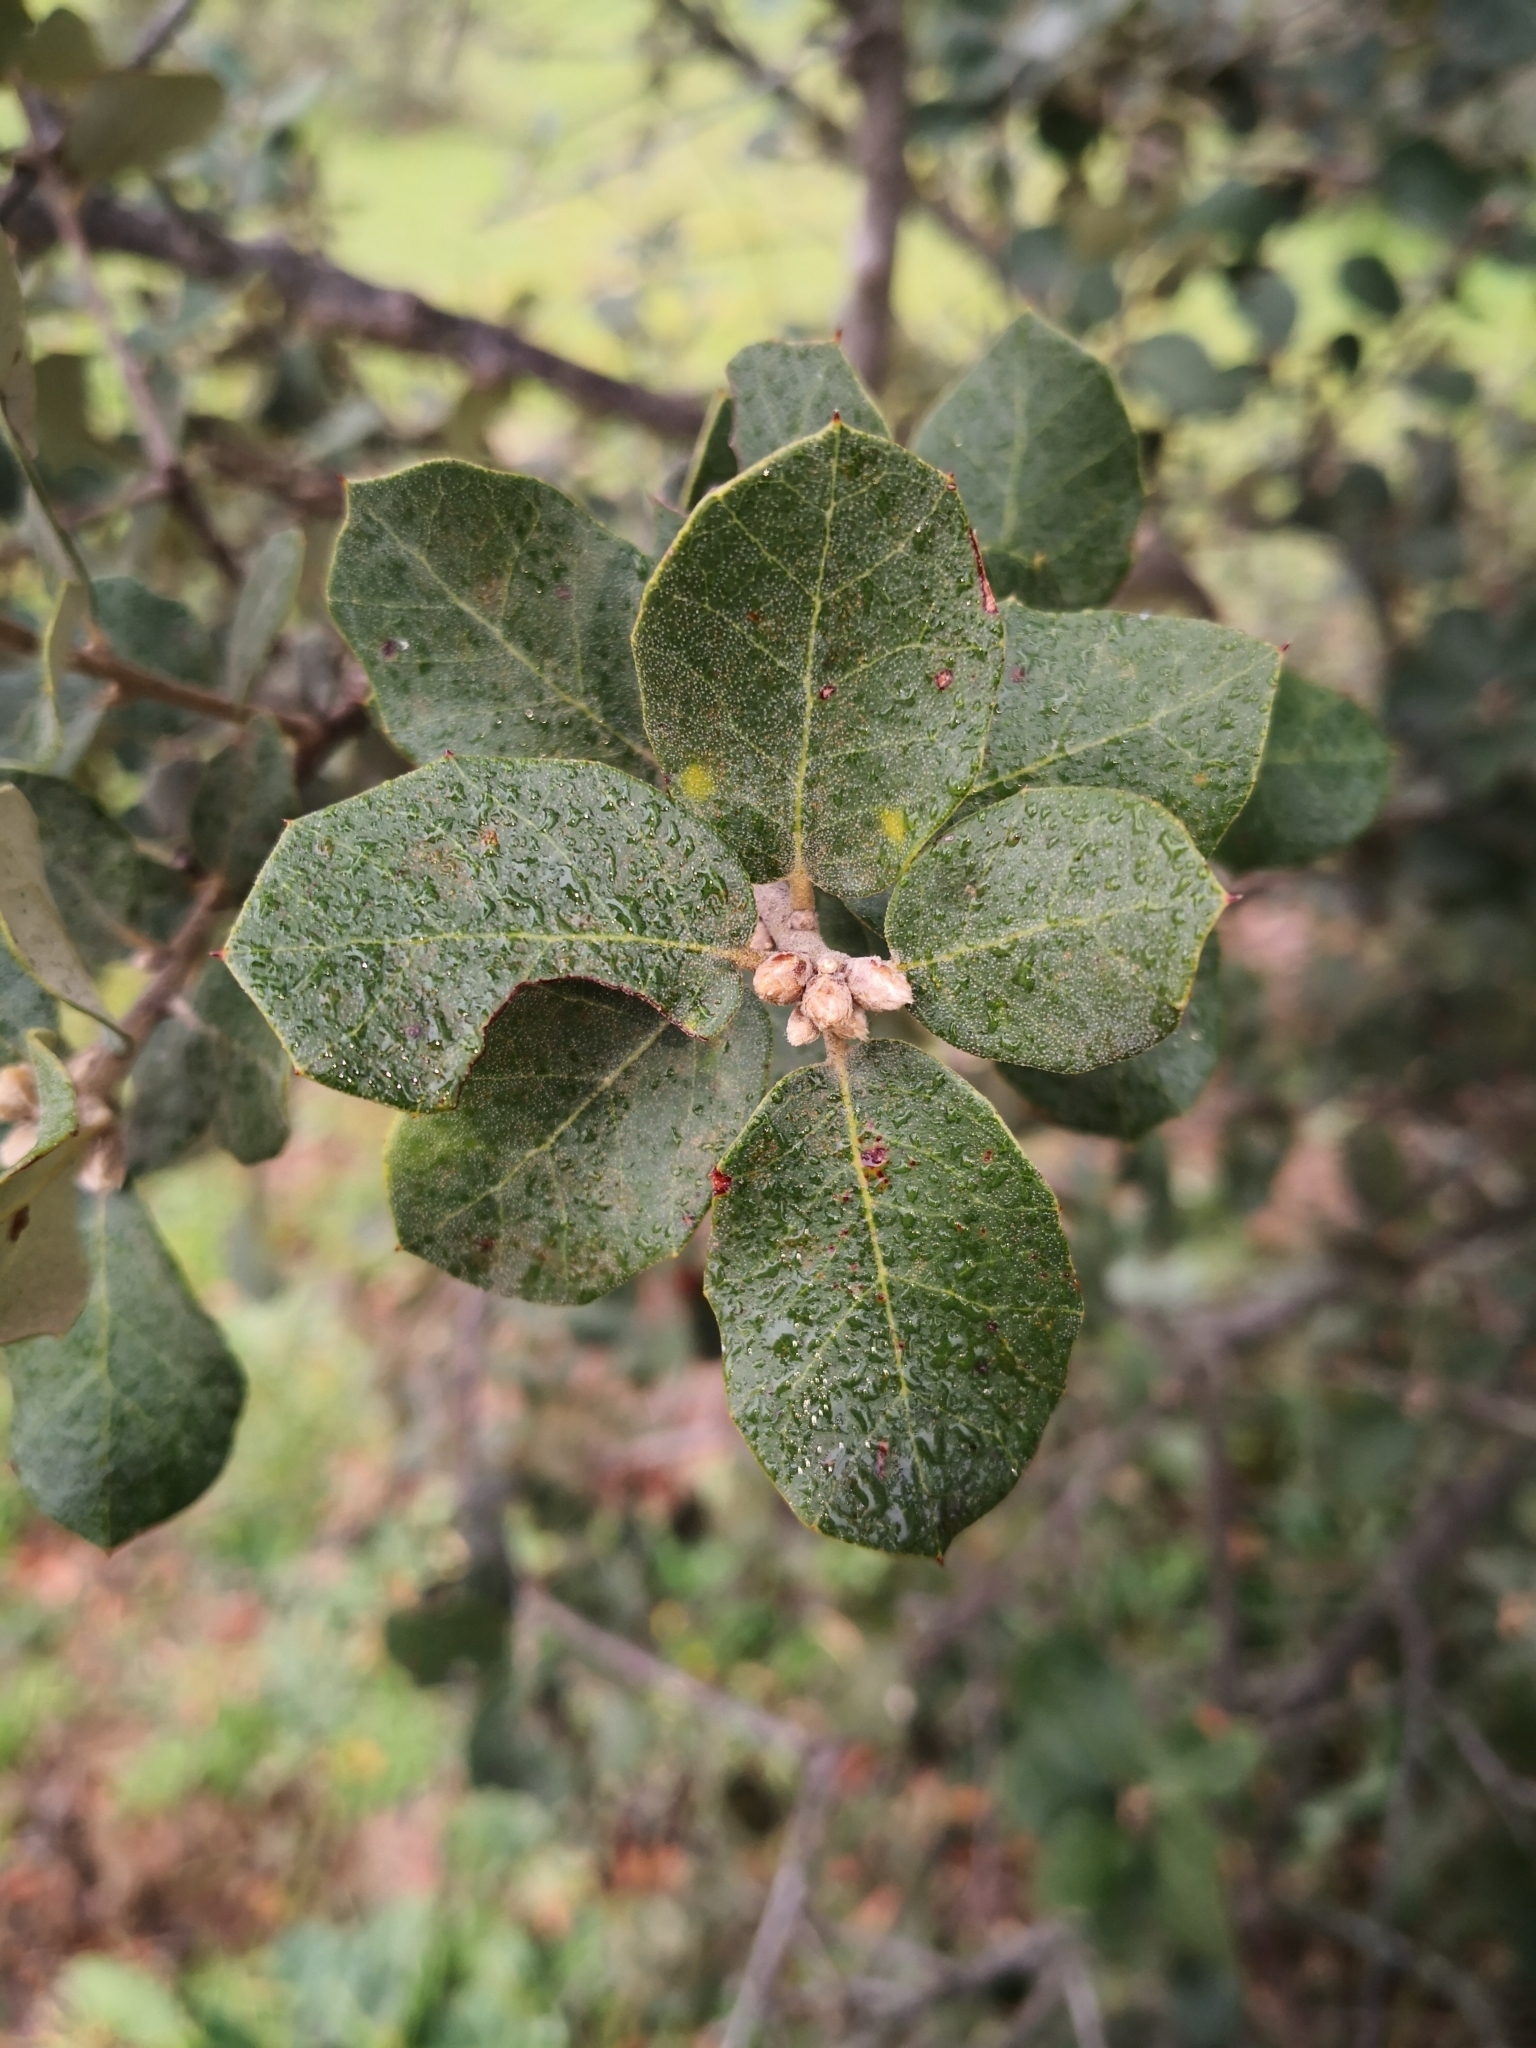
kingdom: Plantae
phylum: Tracheophyta
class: Magnoliopsida
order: Fagales
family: Fagaceae
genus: Quercus
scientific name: Quercus rotundifolia
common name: Holm oak
